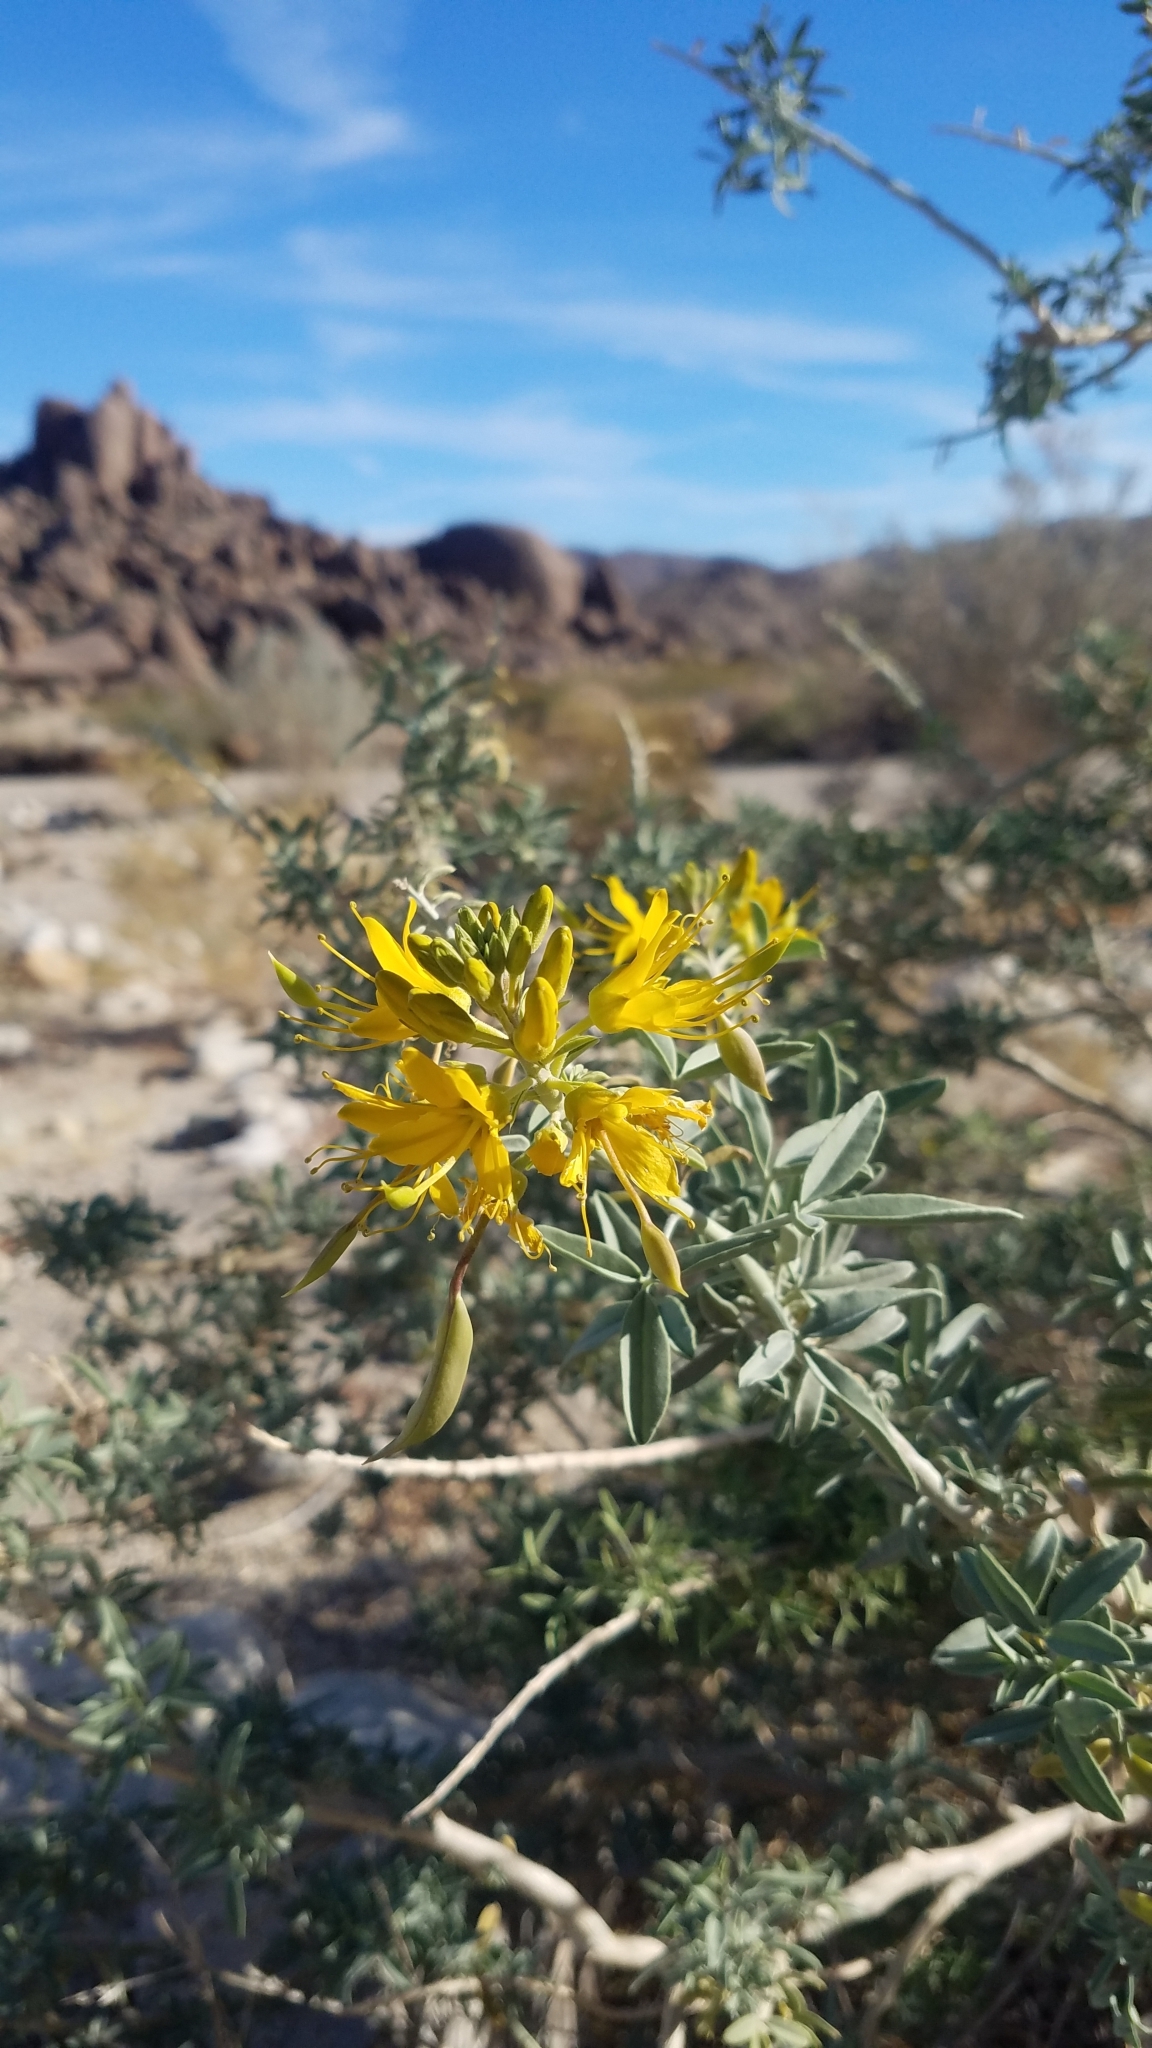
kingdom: Plantae
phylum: Tracheophyta
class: Magnoliopsida
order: Brassicales
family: Cleomaceae
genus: Cleomella
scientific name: Cleomella arborea
